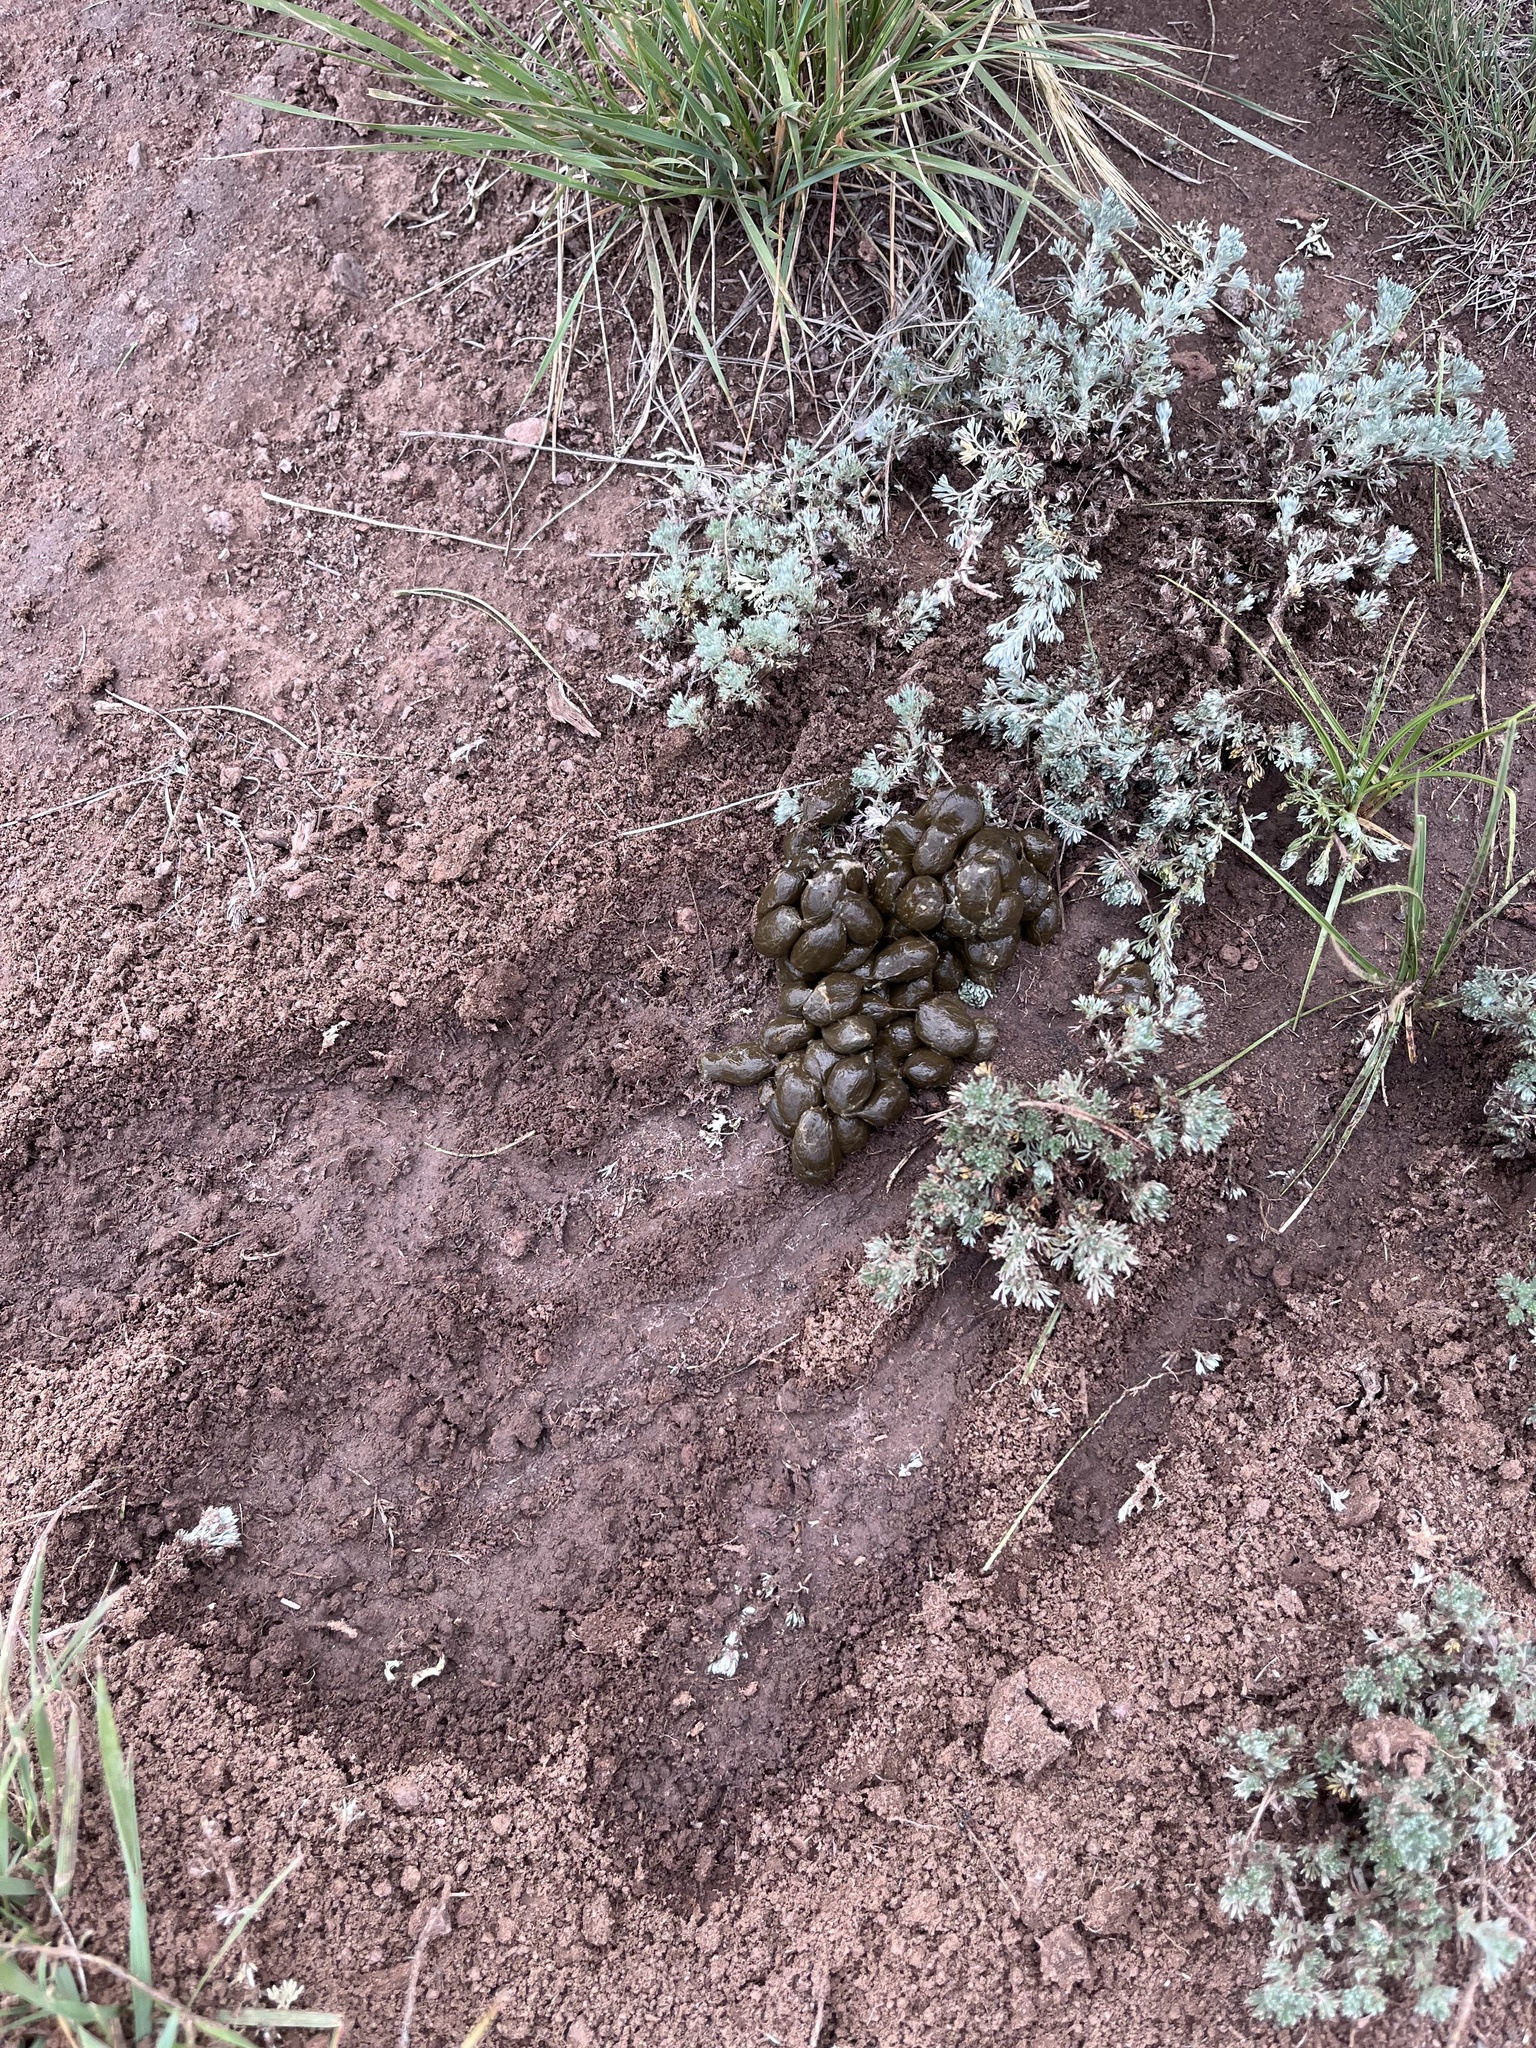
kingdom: Animalia
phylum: Chordata
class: Mammalia
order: Artiodactyla
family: Antilocapridae
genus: Antilocapra
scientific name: Antilocapra americana
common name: Pronghorn
